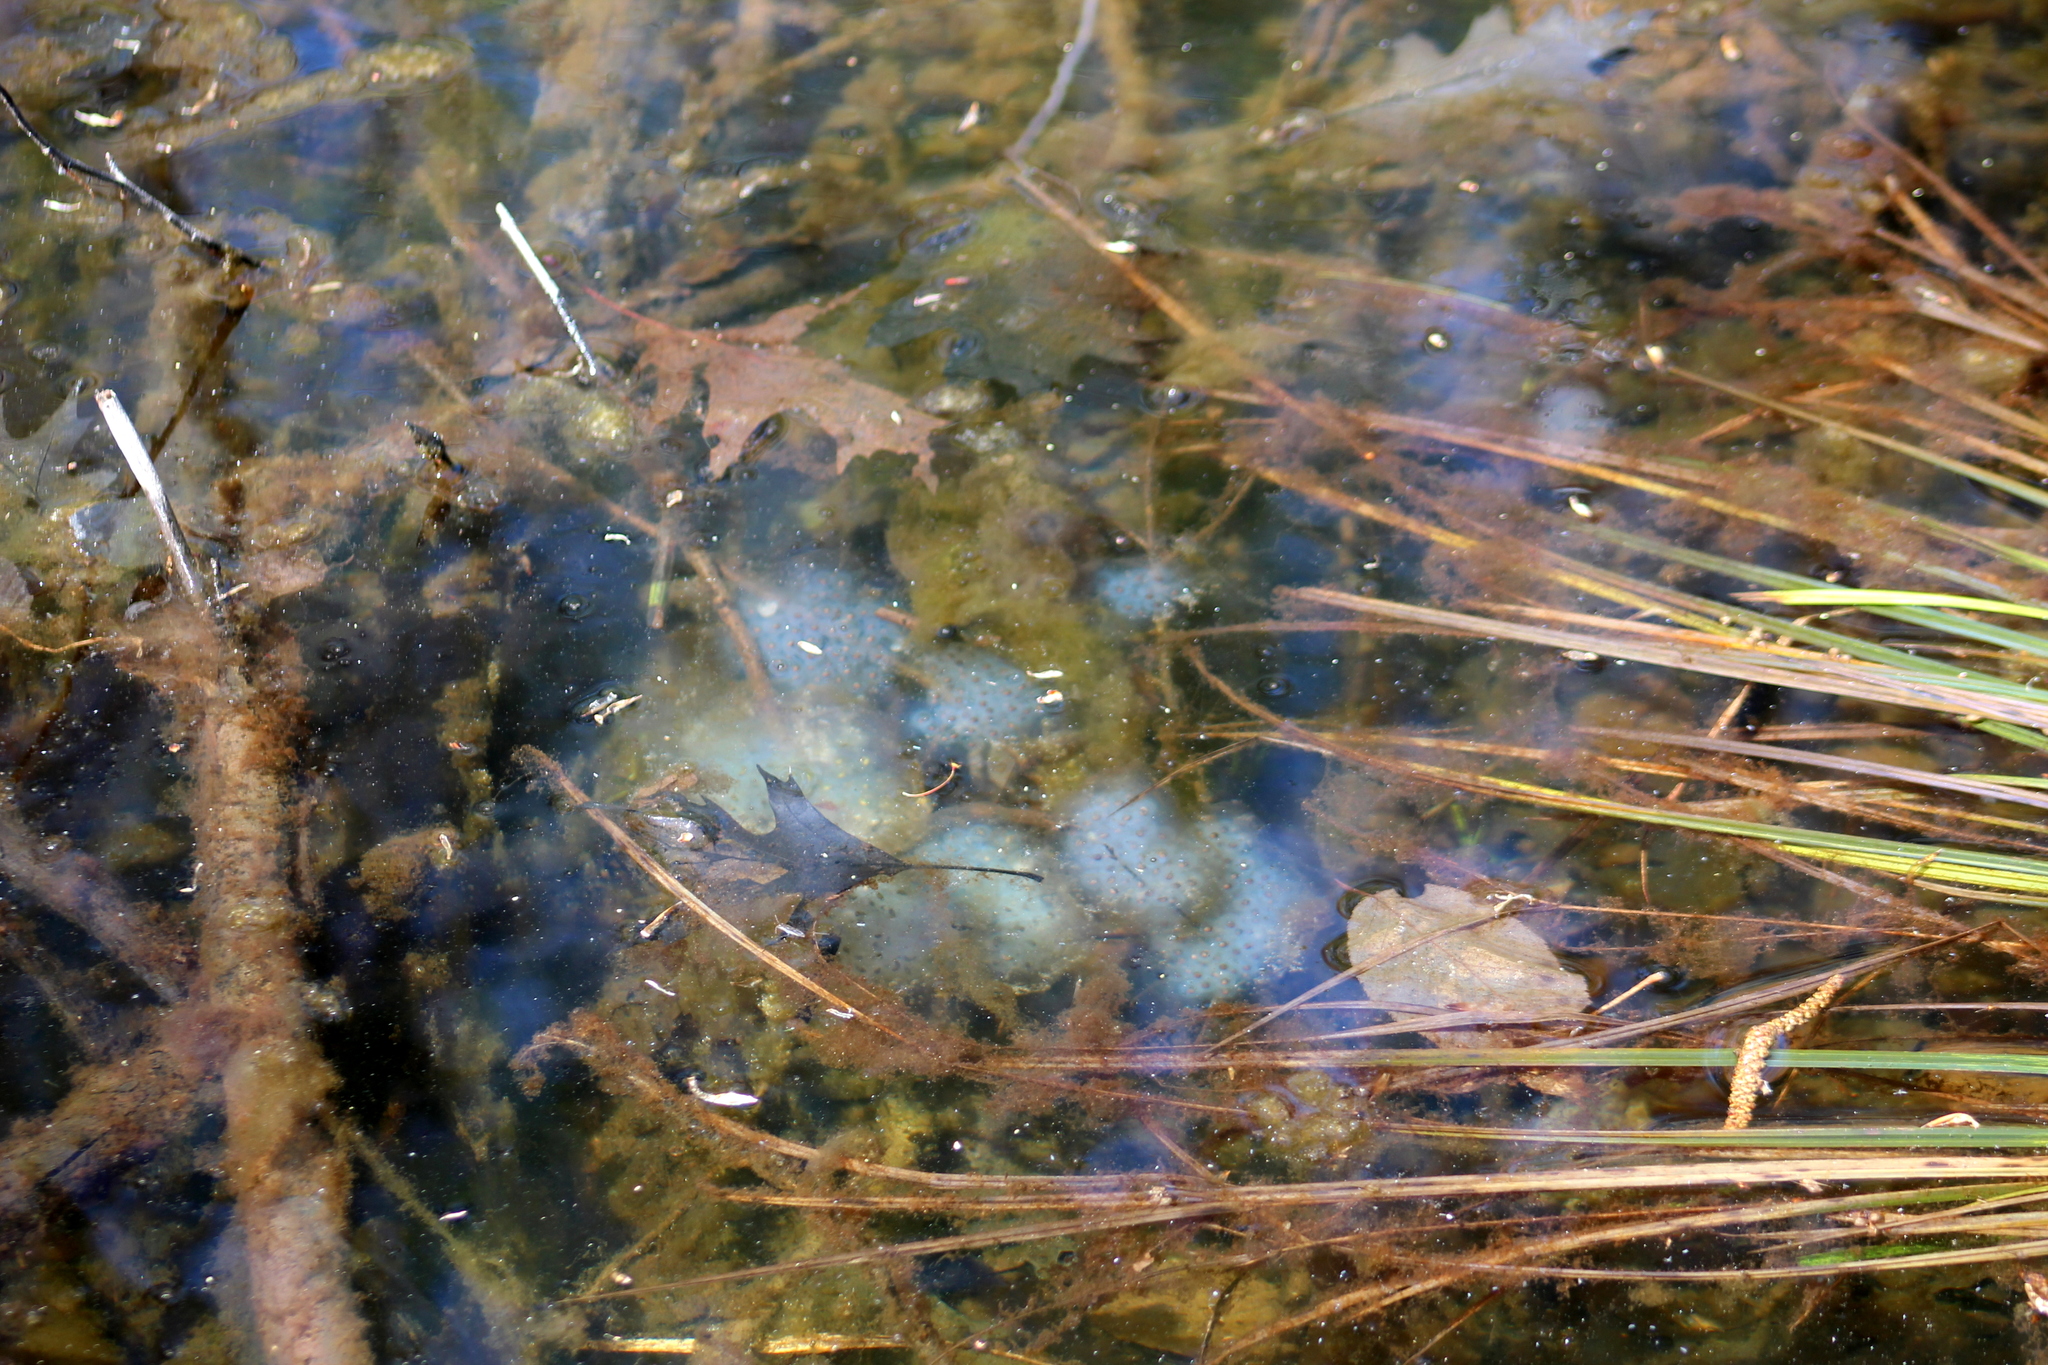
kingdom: Animalia
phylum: Chordata
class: Amphibia
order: Caudata
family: Ambystomatidae
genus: Ambystoma
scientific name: Ambystoma maculatum
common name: Spotted salamander
